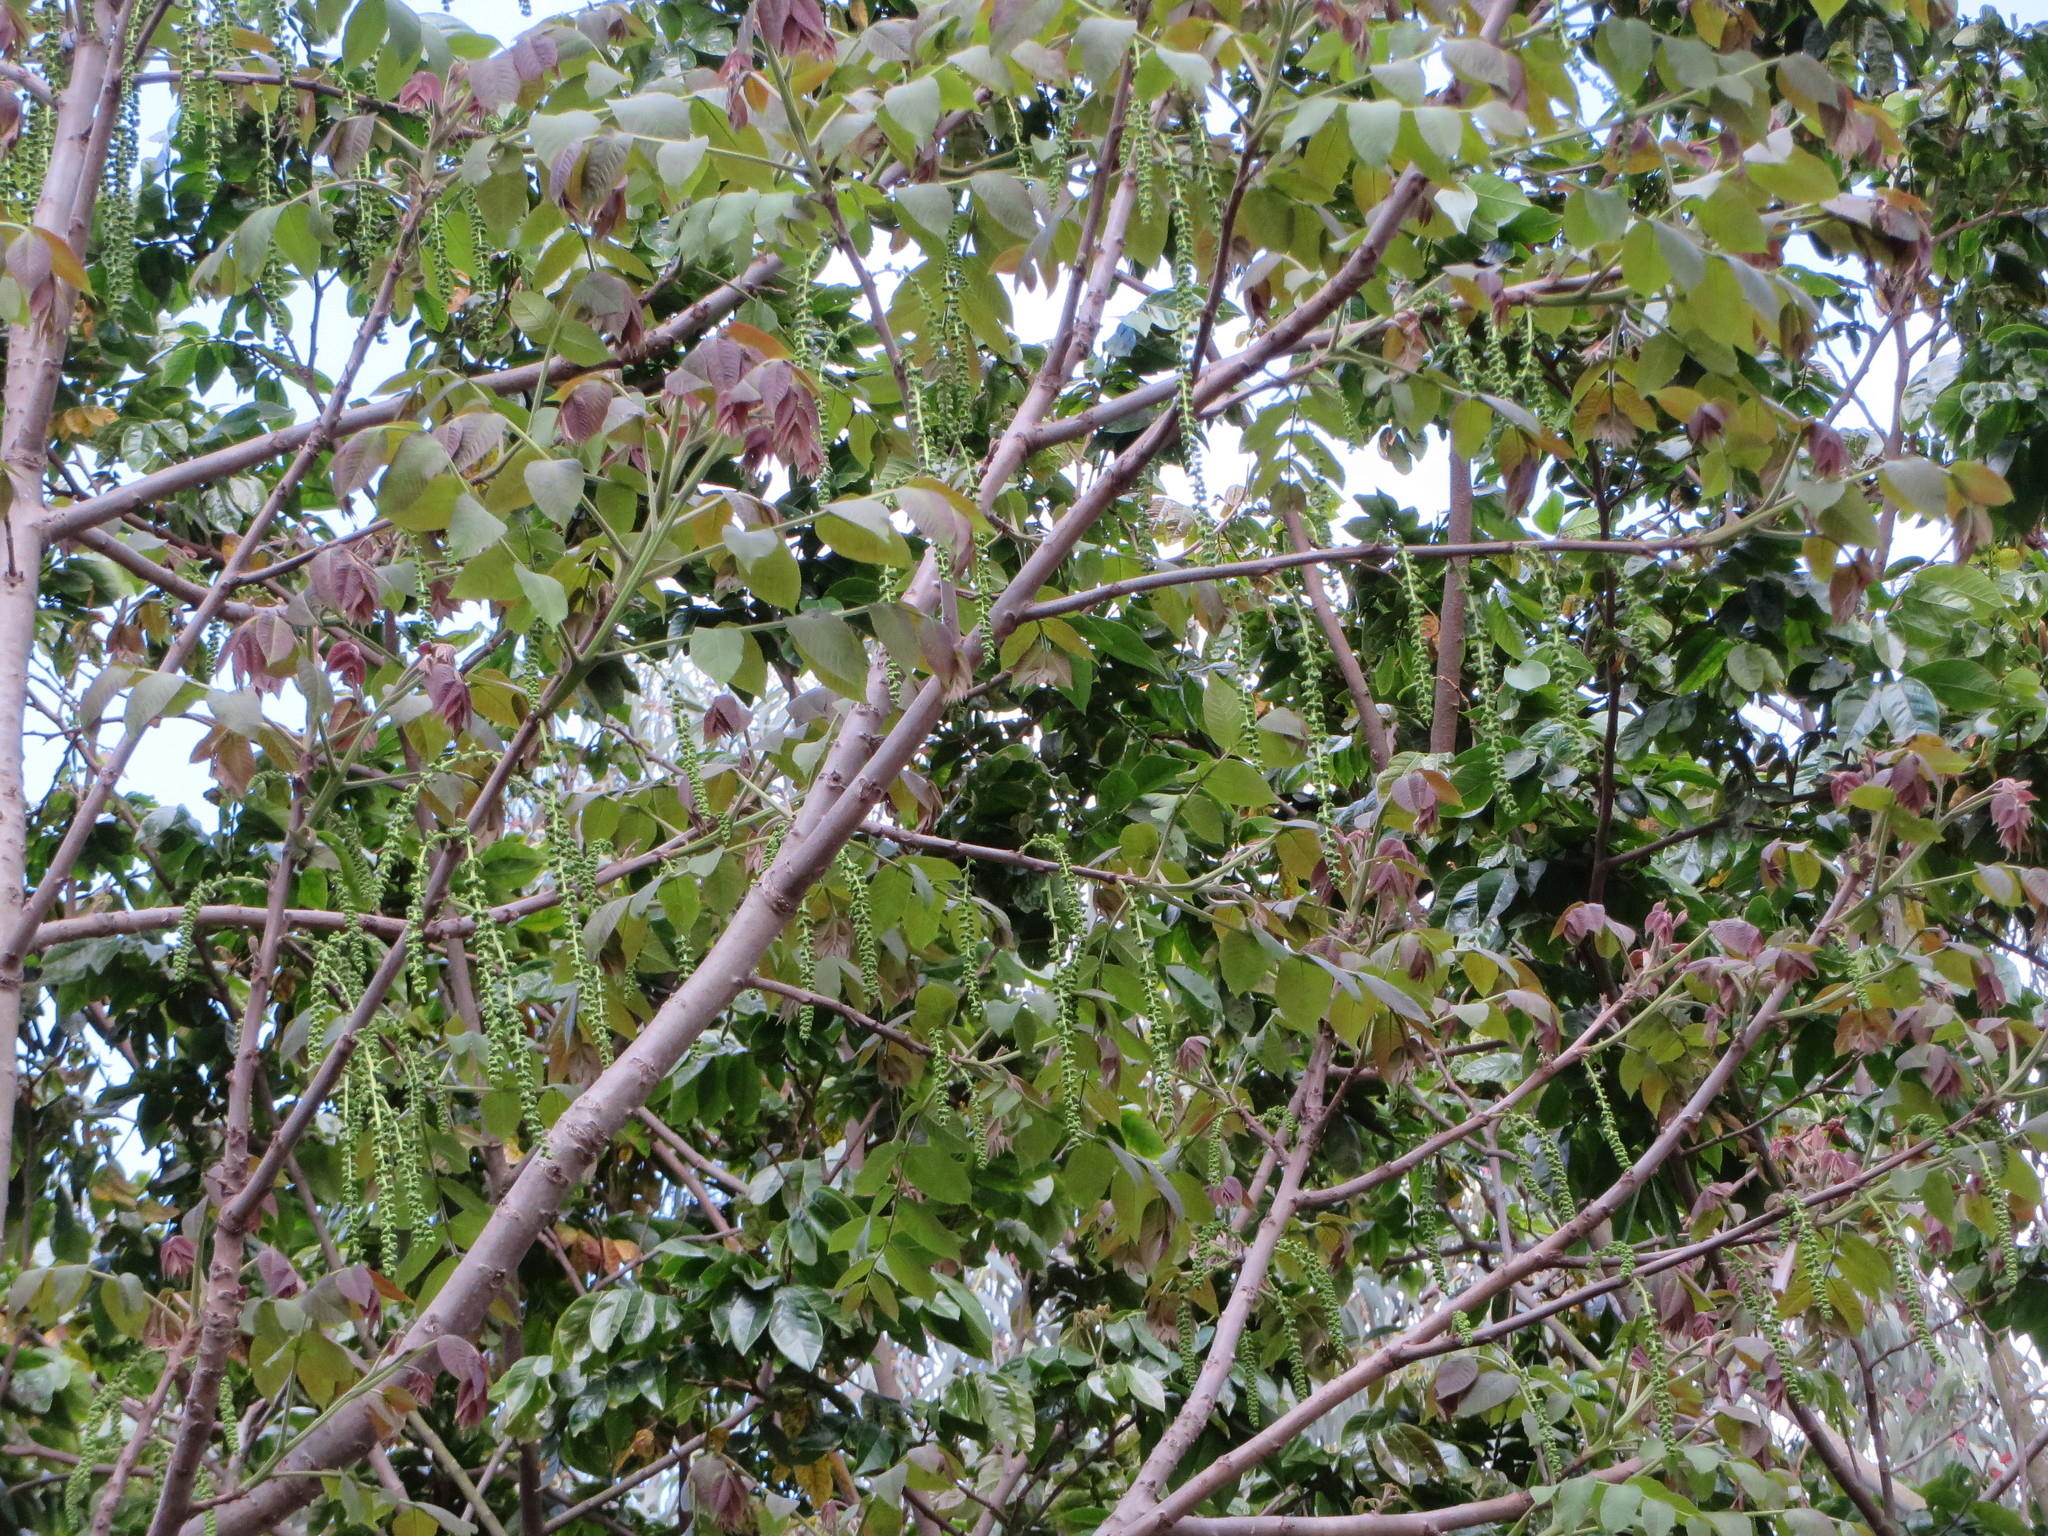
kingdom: Plantae
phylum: Tracheophyta
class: Magnoliopsida
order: Fagales
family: Juglandaceae
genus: Juglans
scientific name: Juglans neotropica
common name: Andean walnut
